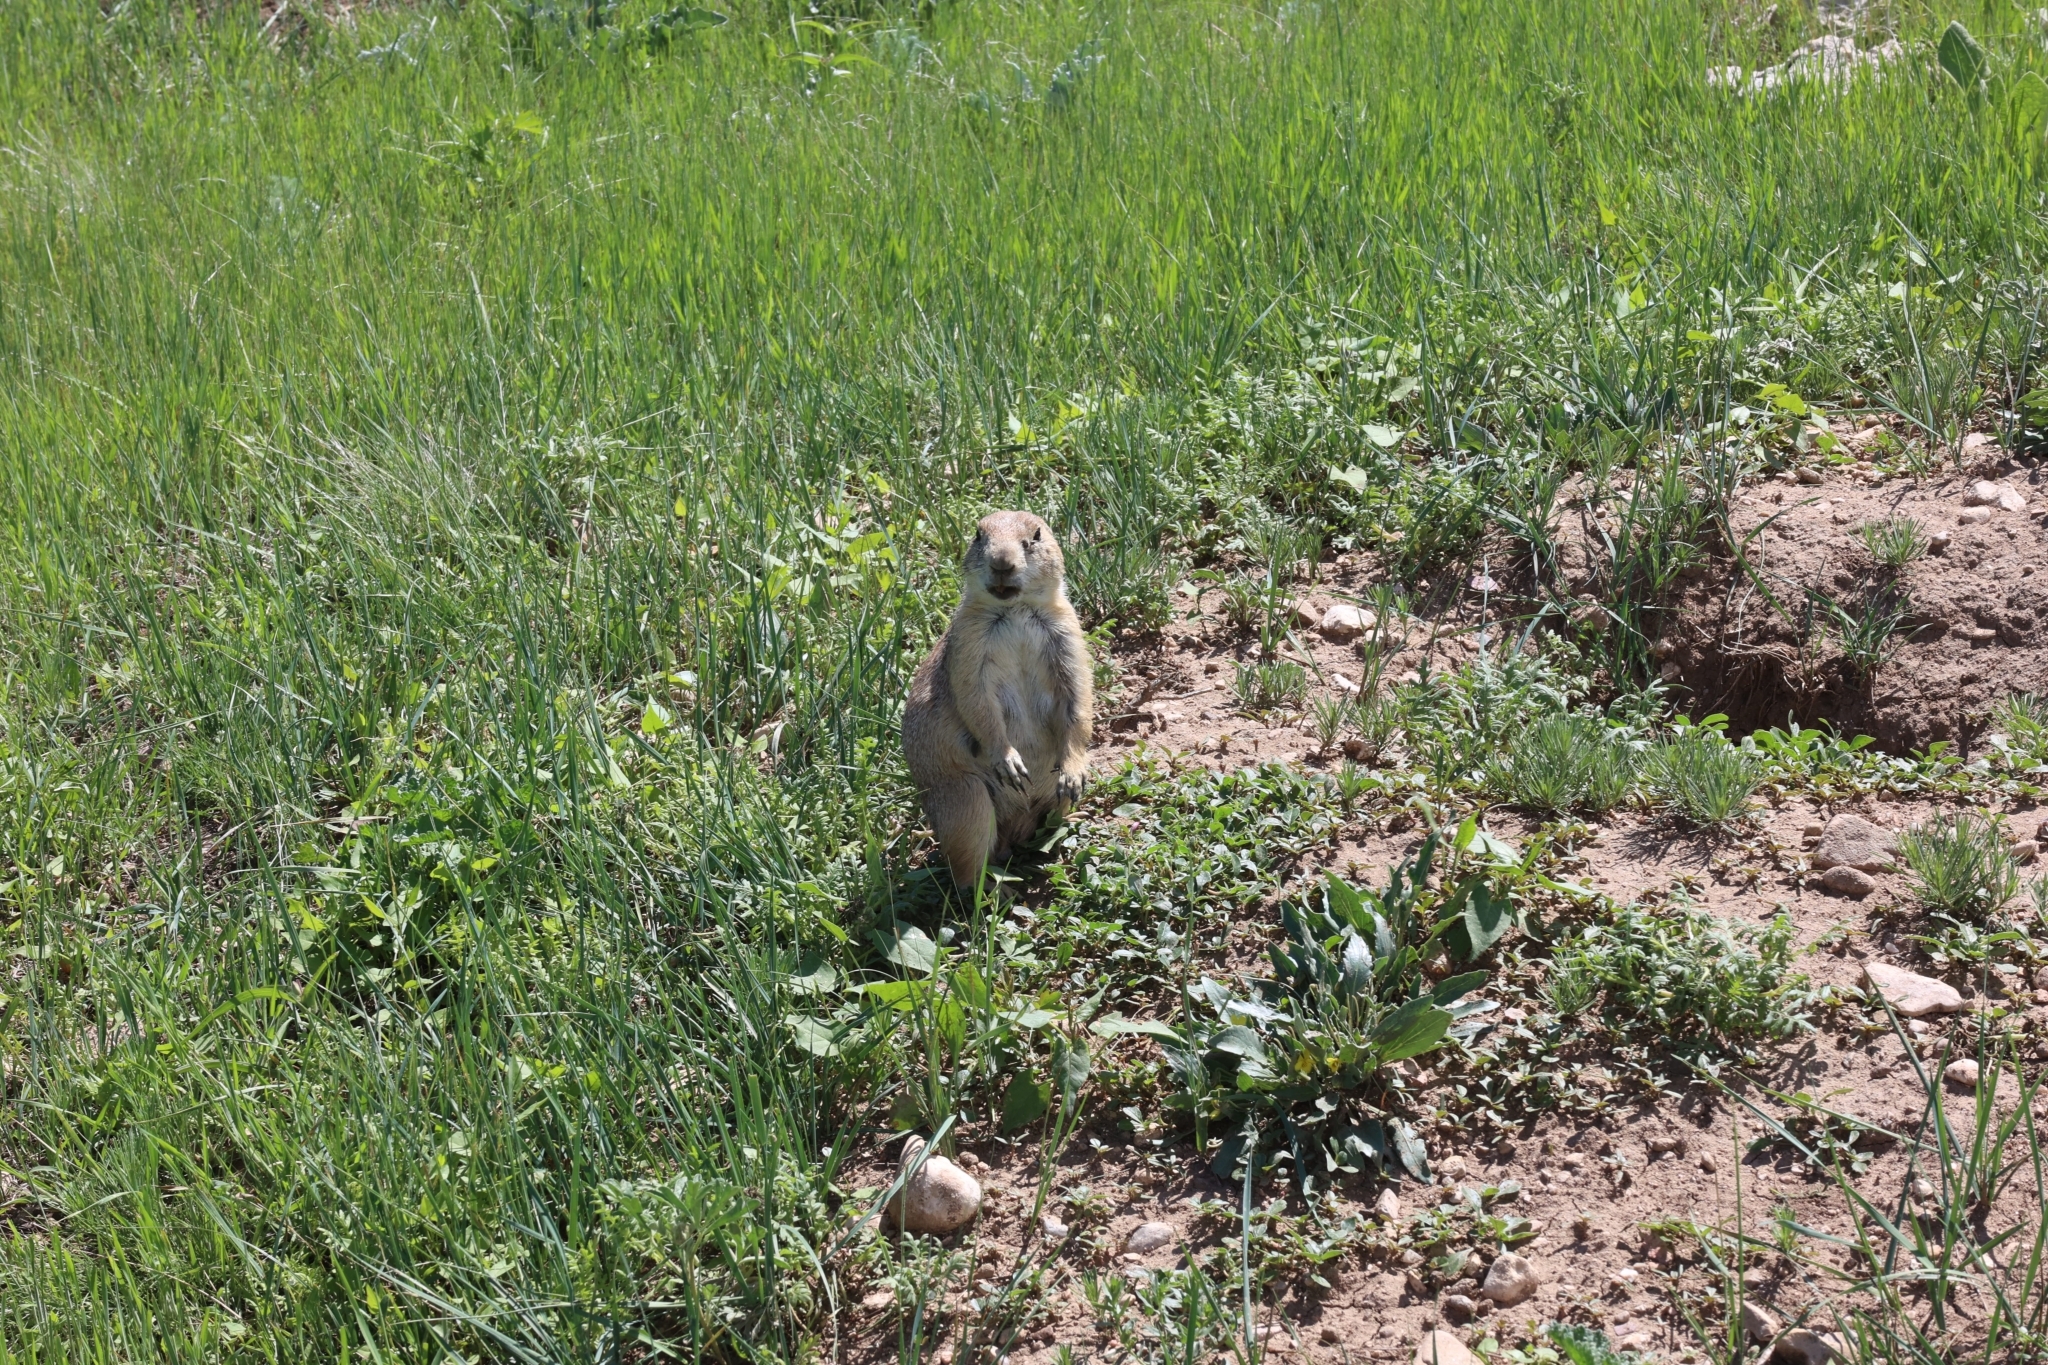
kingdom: Animalia
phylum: Chordata
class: Mammalia
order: Rodentia
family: Sciuridae
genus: Cynomys
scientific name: Cynomys ludovicianus
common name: Black-tailed prairie dog
